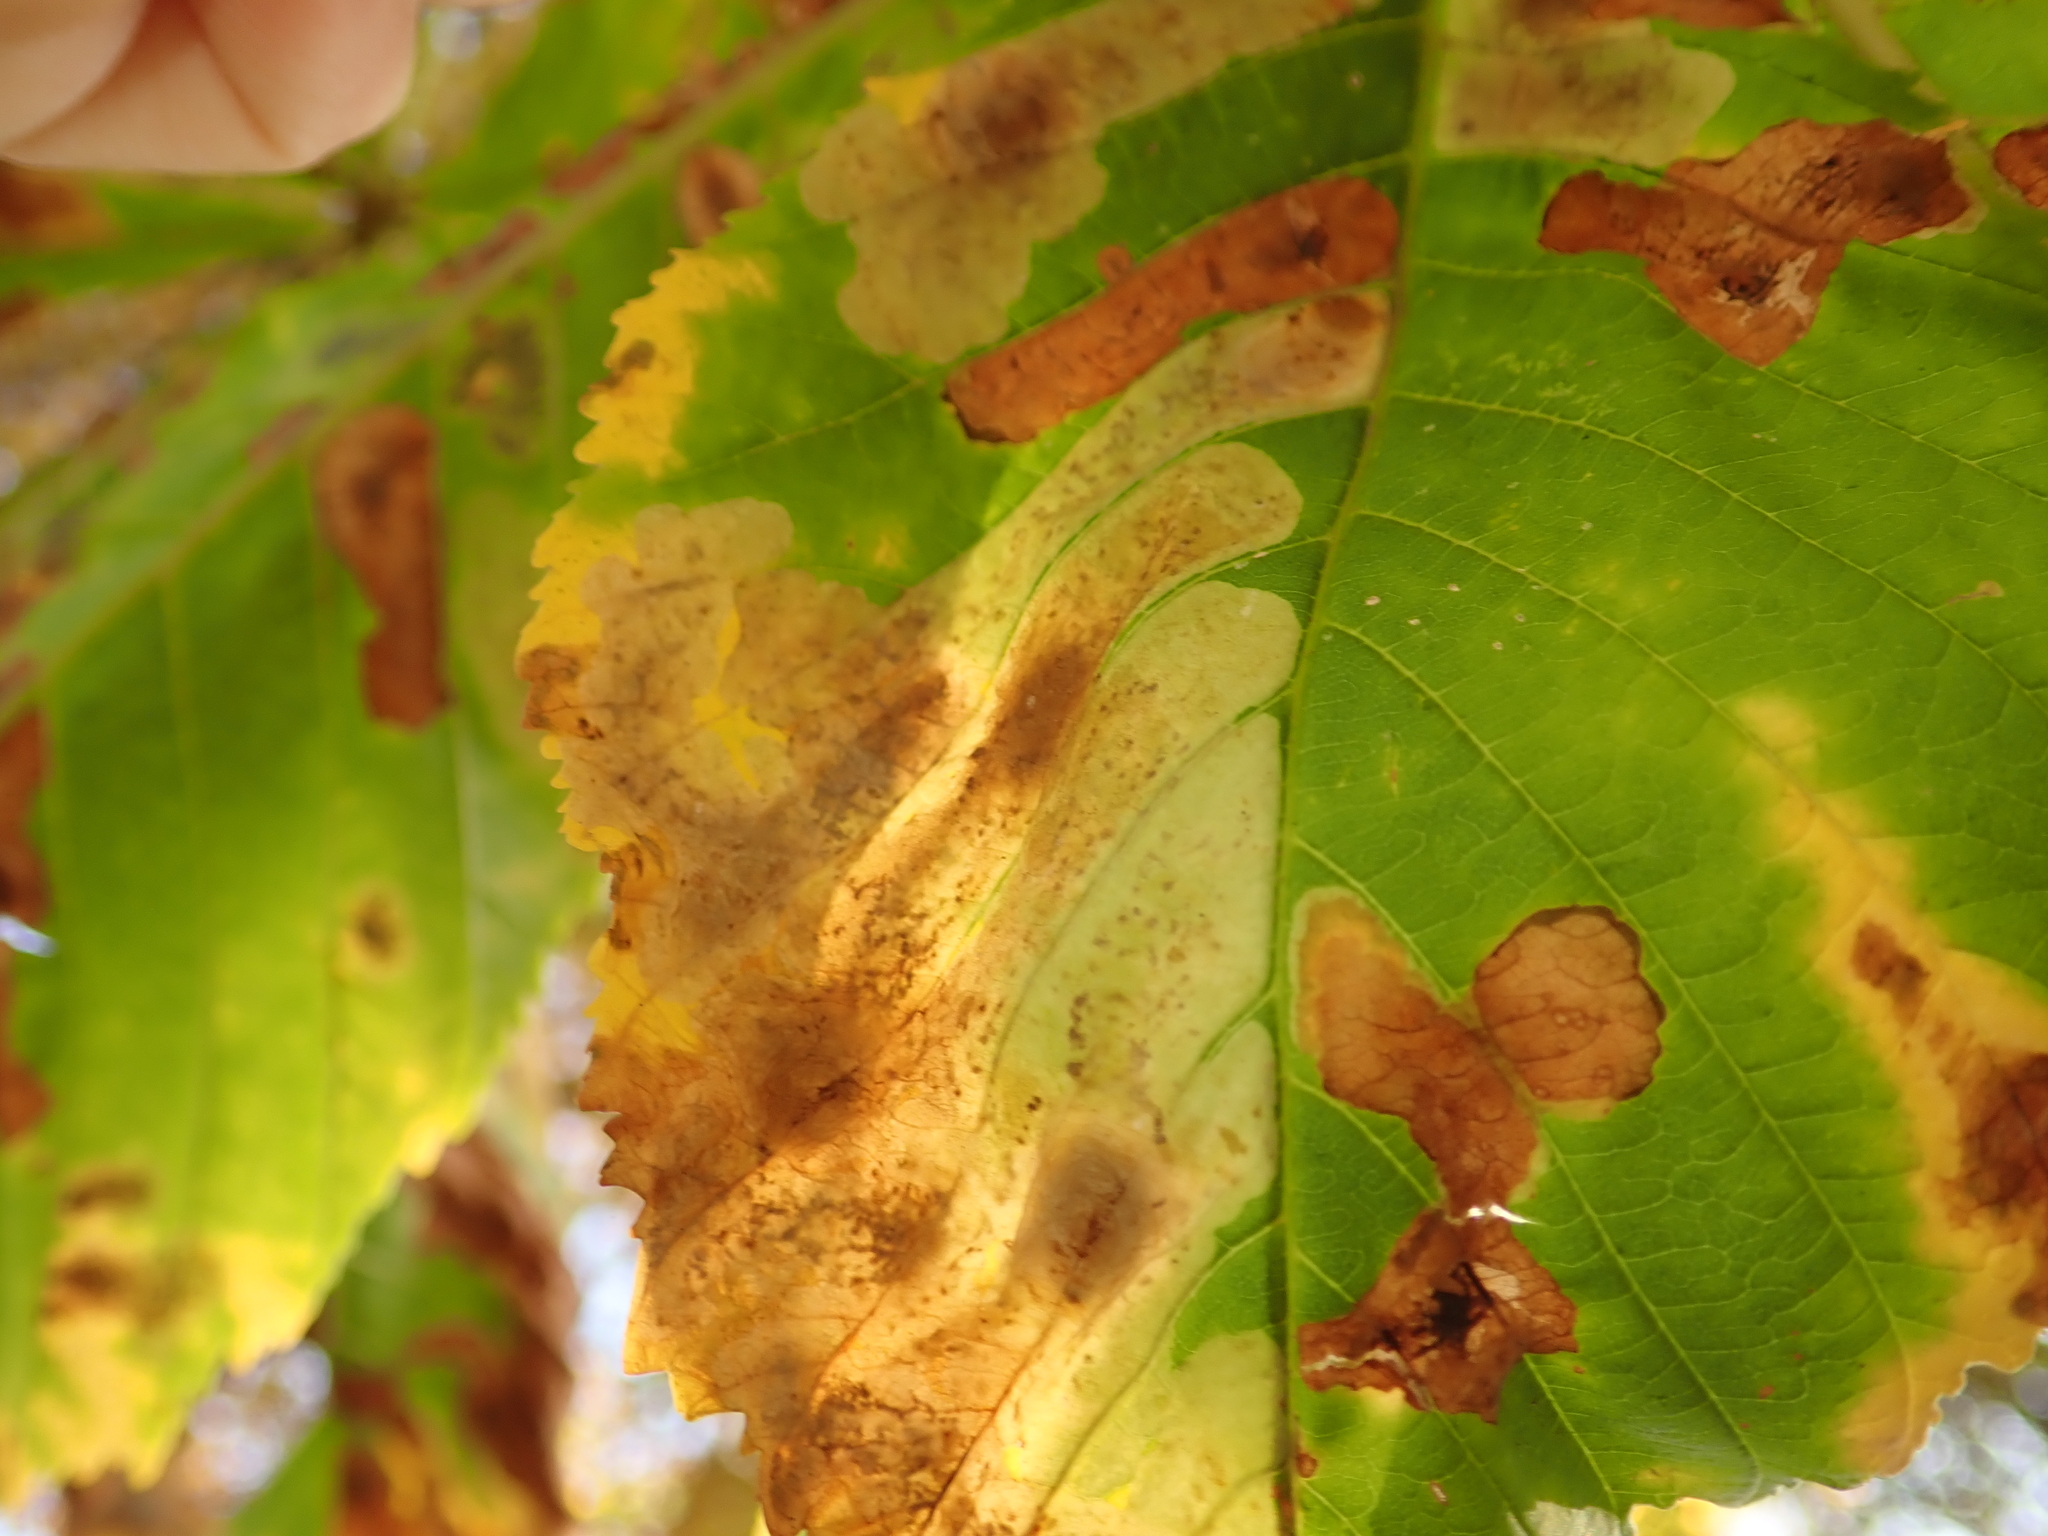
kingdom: Animalia
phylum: Arthropoda
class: Insecta
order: Lepidoptera
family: Gracillariidae
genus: Cameraria
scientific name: Cameraria ohridella
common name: Horse-chestnut leaf-miner
